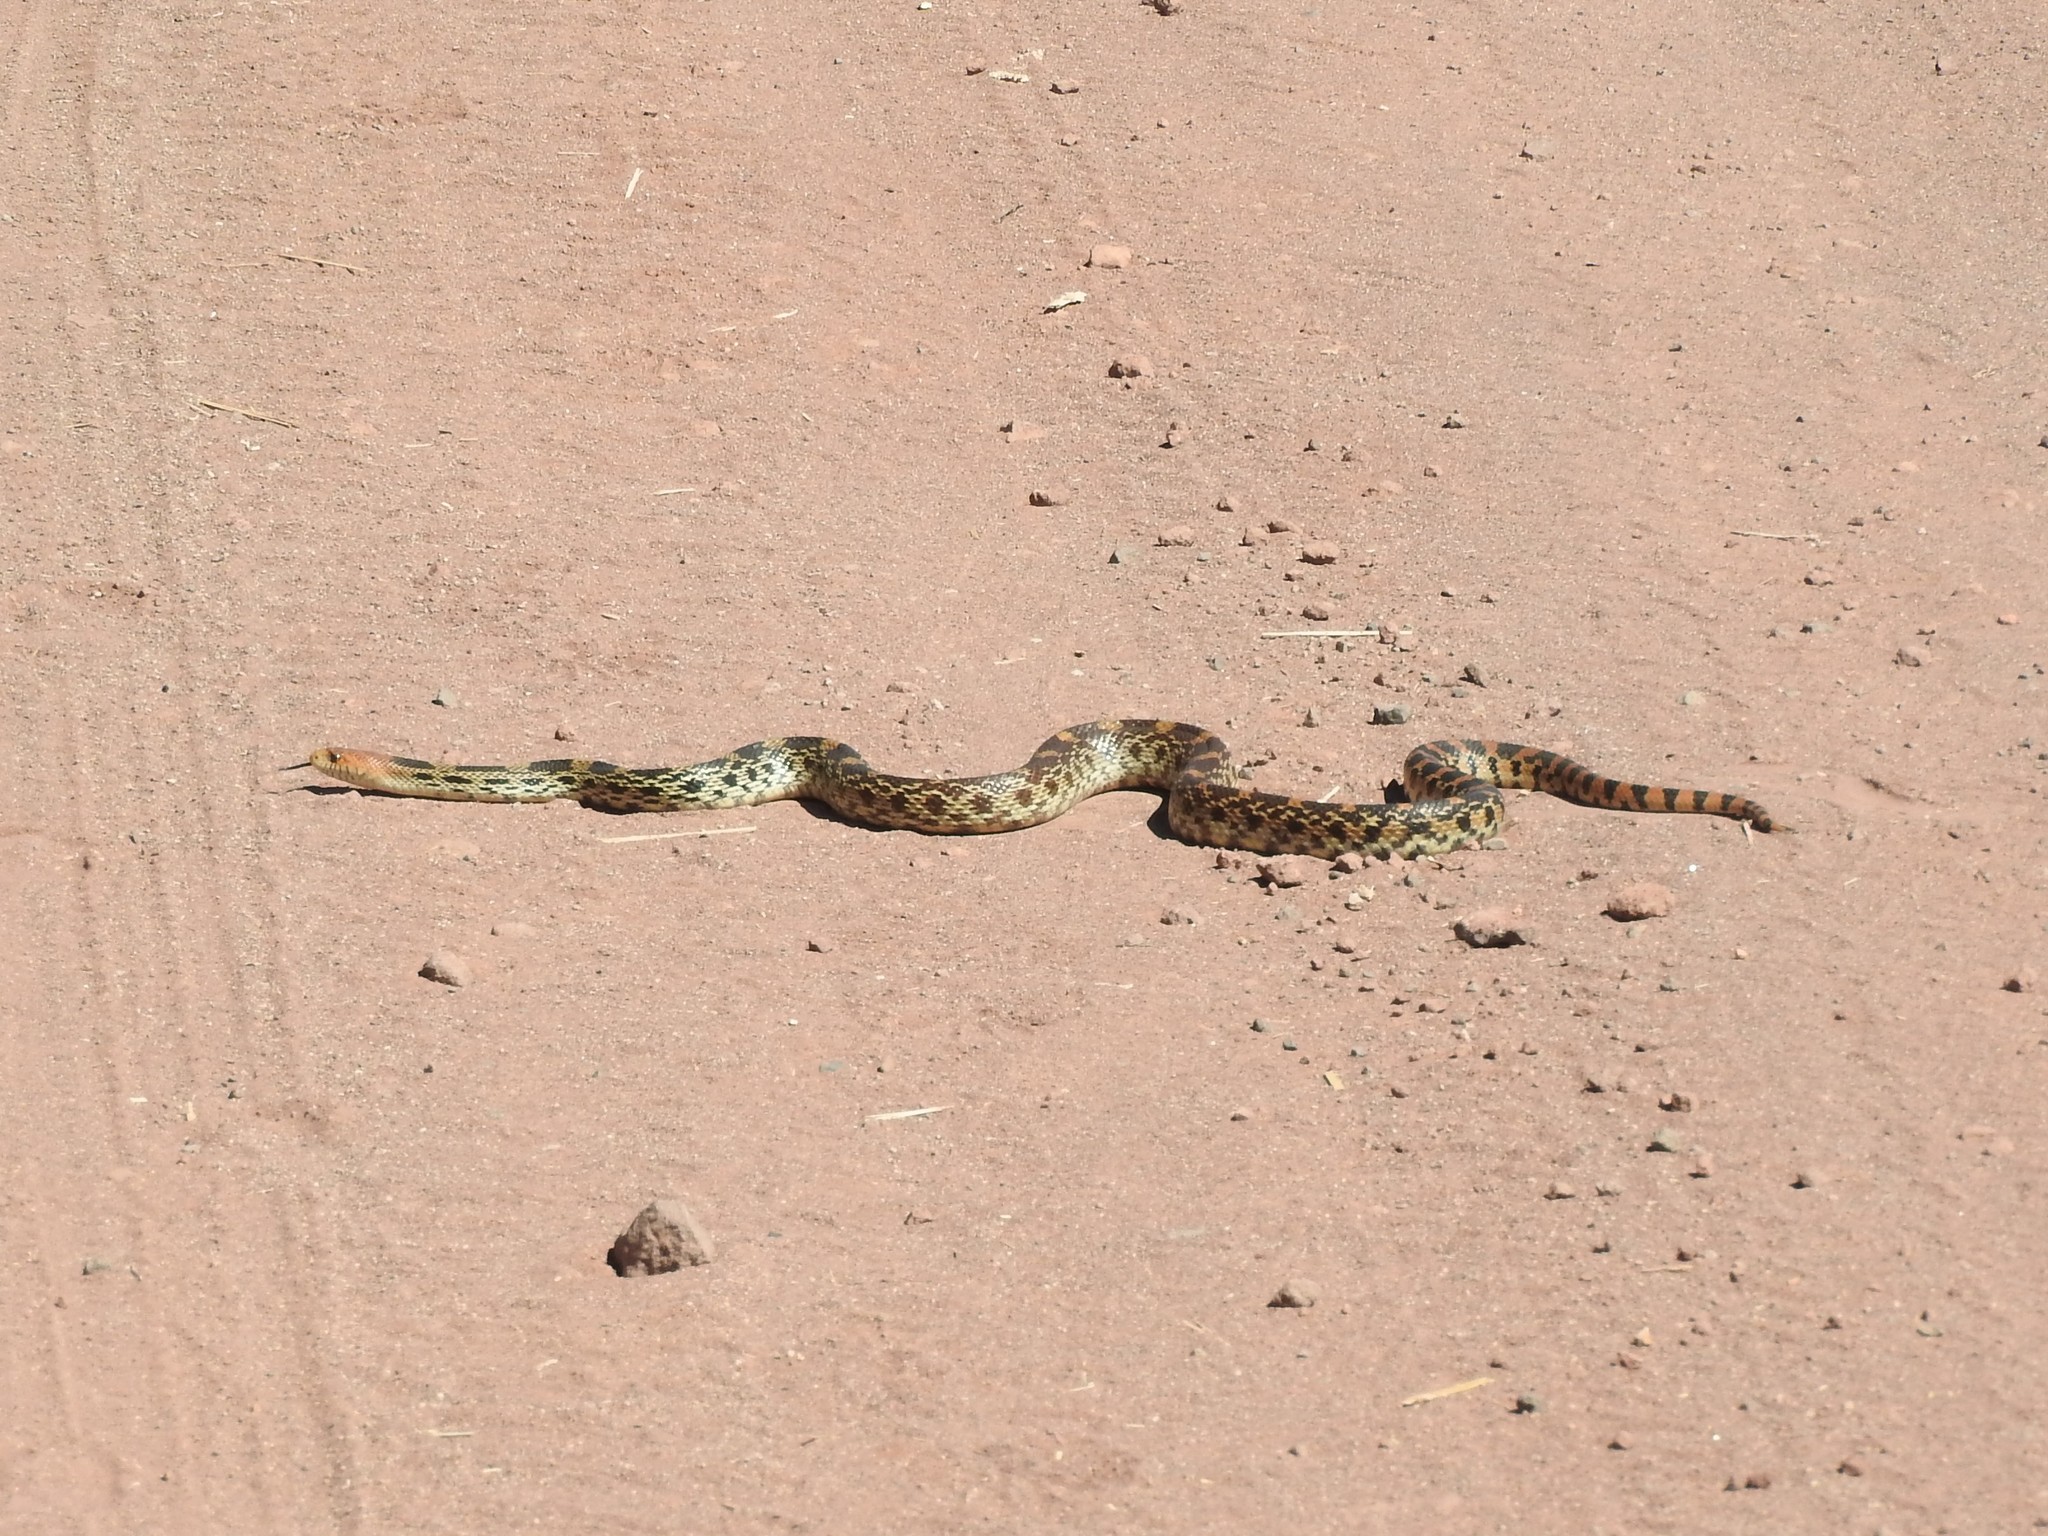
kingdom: Animalia
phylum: Chordata
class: Squamata
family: Colubridae
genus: Pituophis
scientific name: Pituophis deppei
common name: Mexican bull snake
